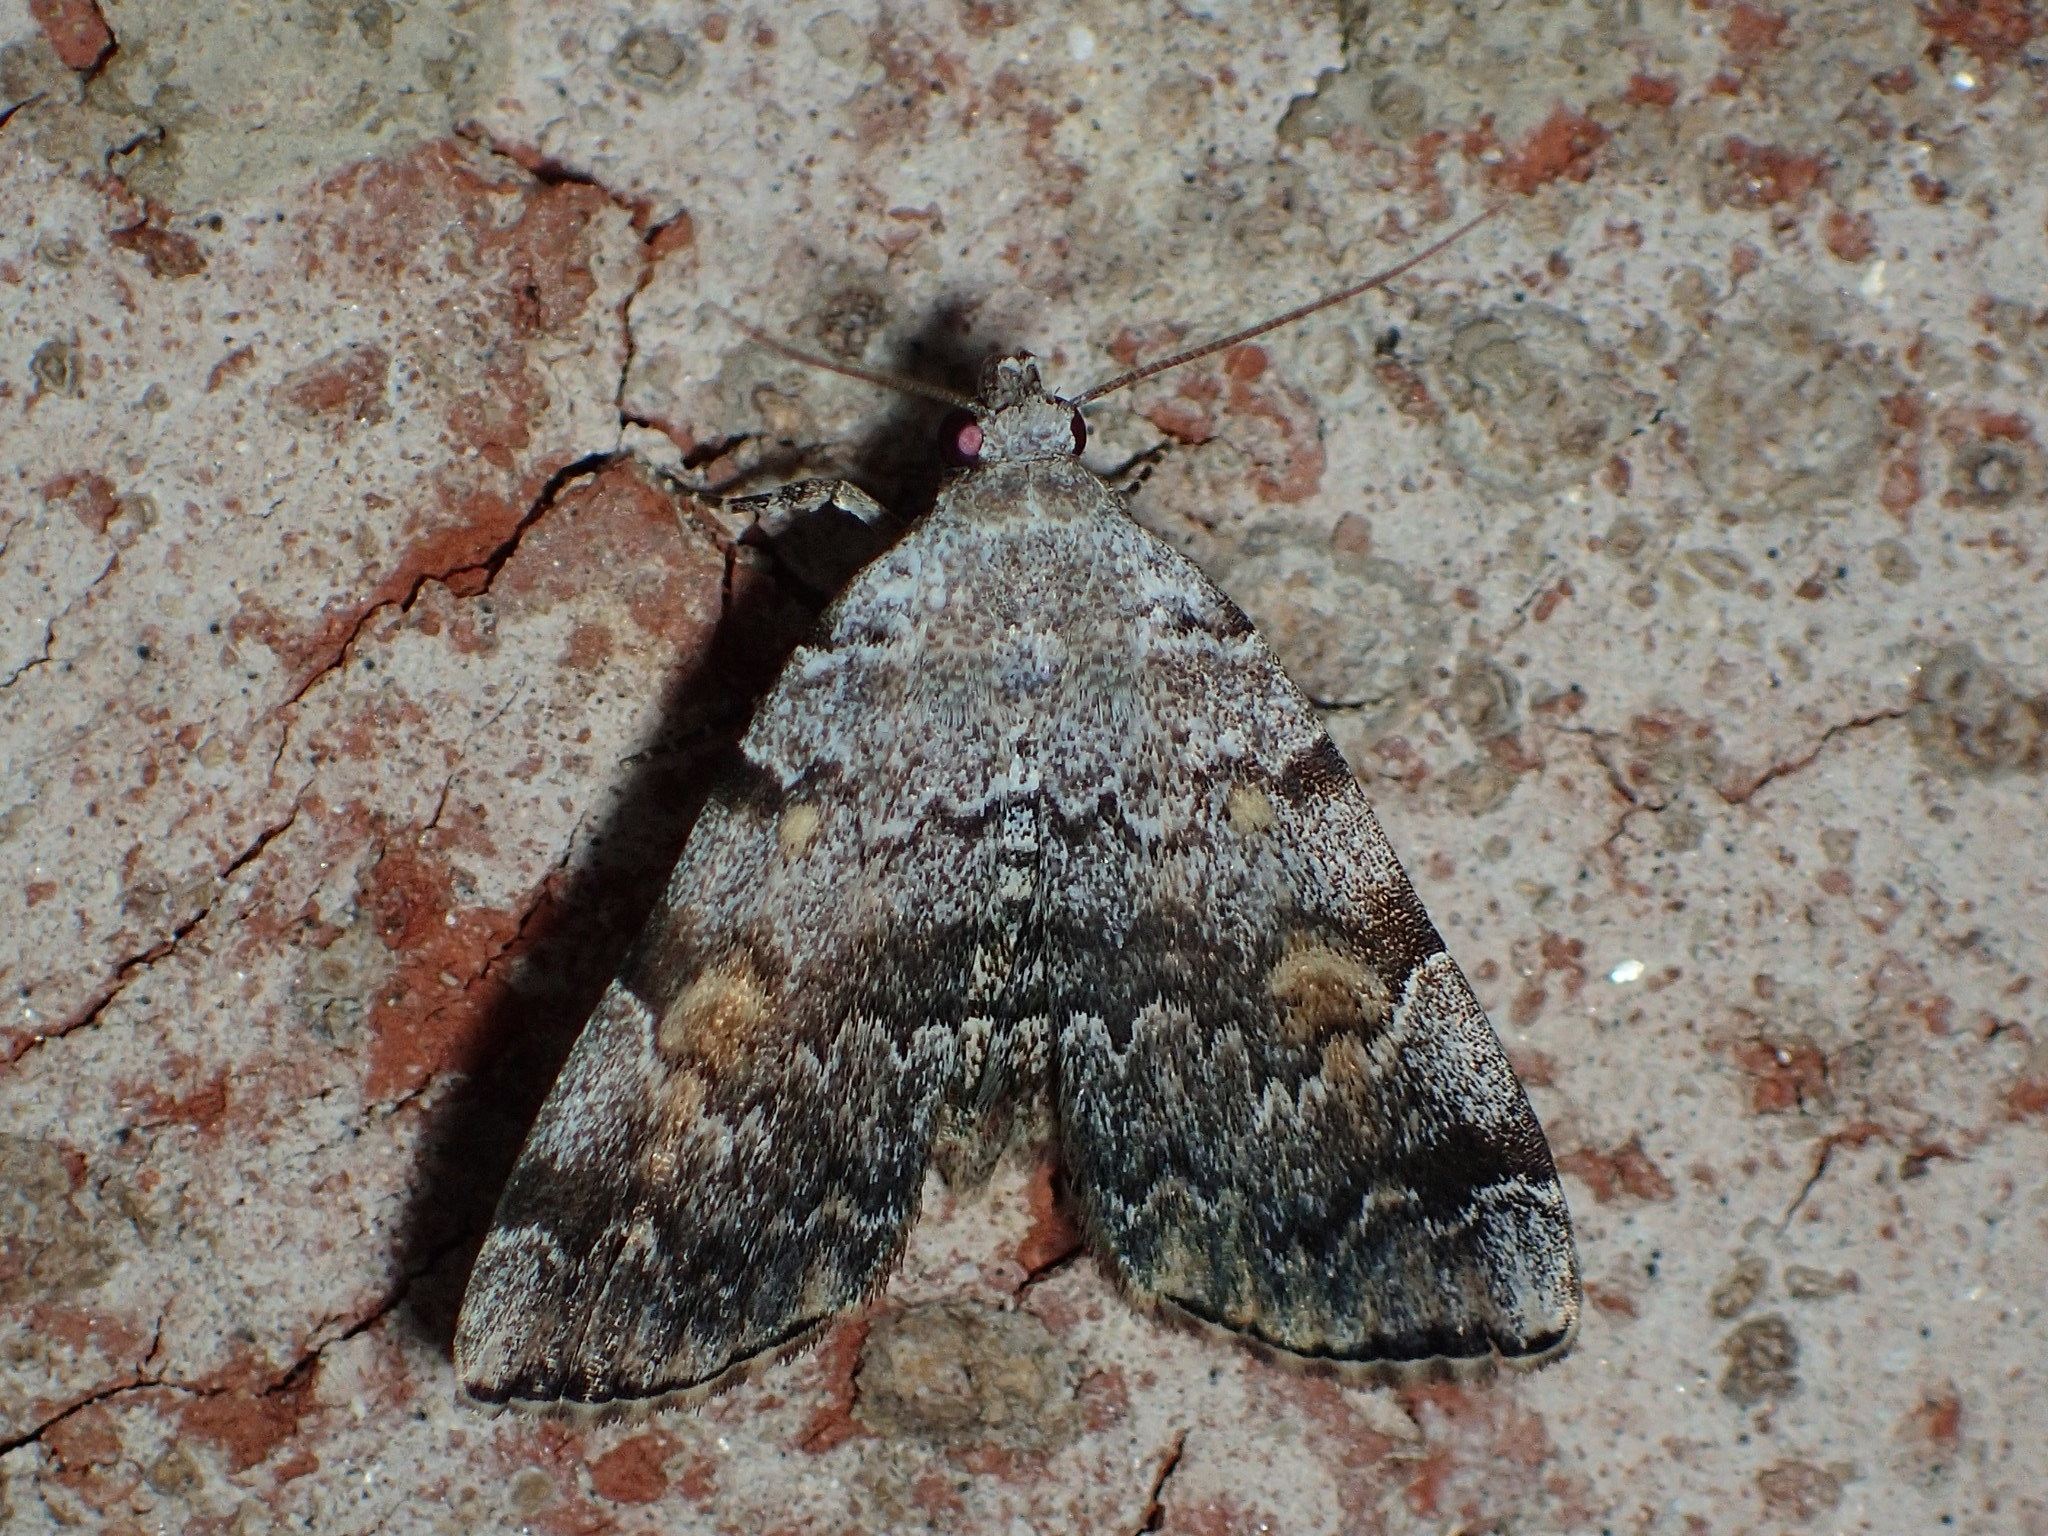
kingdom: Animalia
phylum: Arthropoda
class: Insecta
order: Lepidoptera
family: Erebidae
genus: Idia
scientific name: Idia americalis
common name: American idia moth
